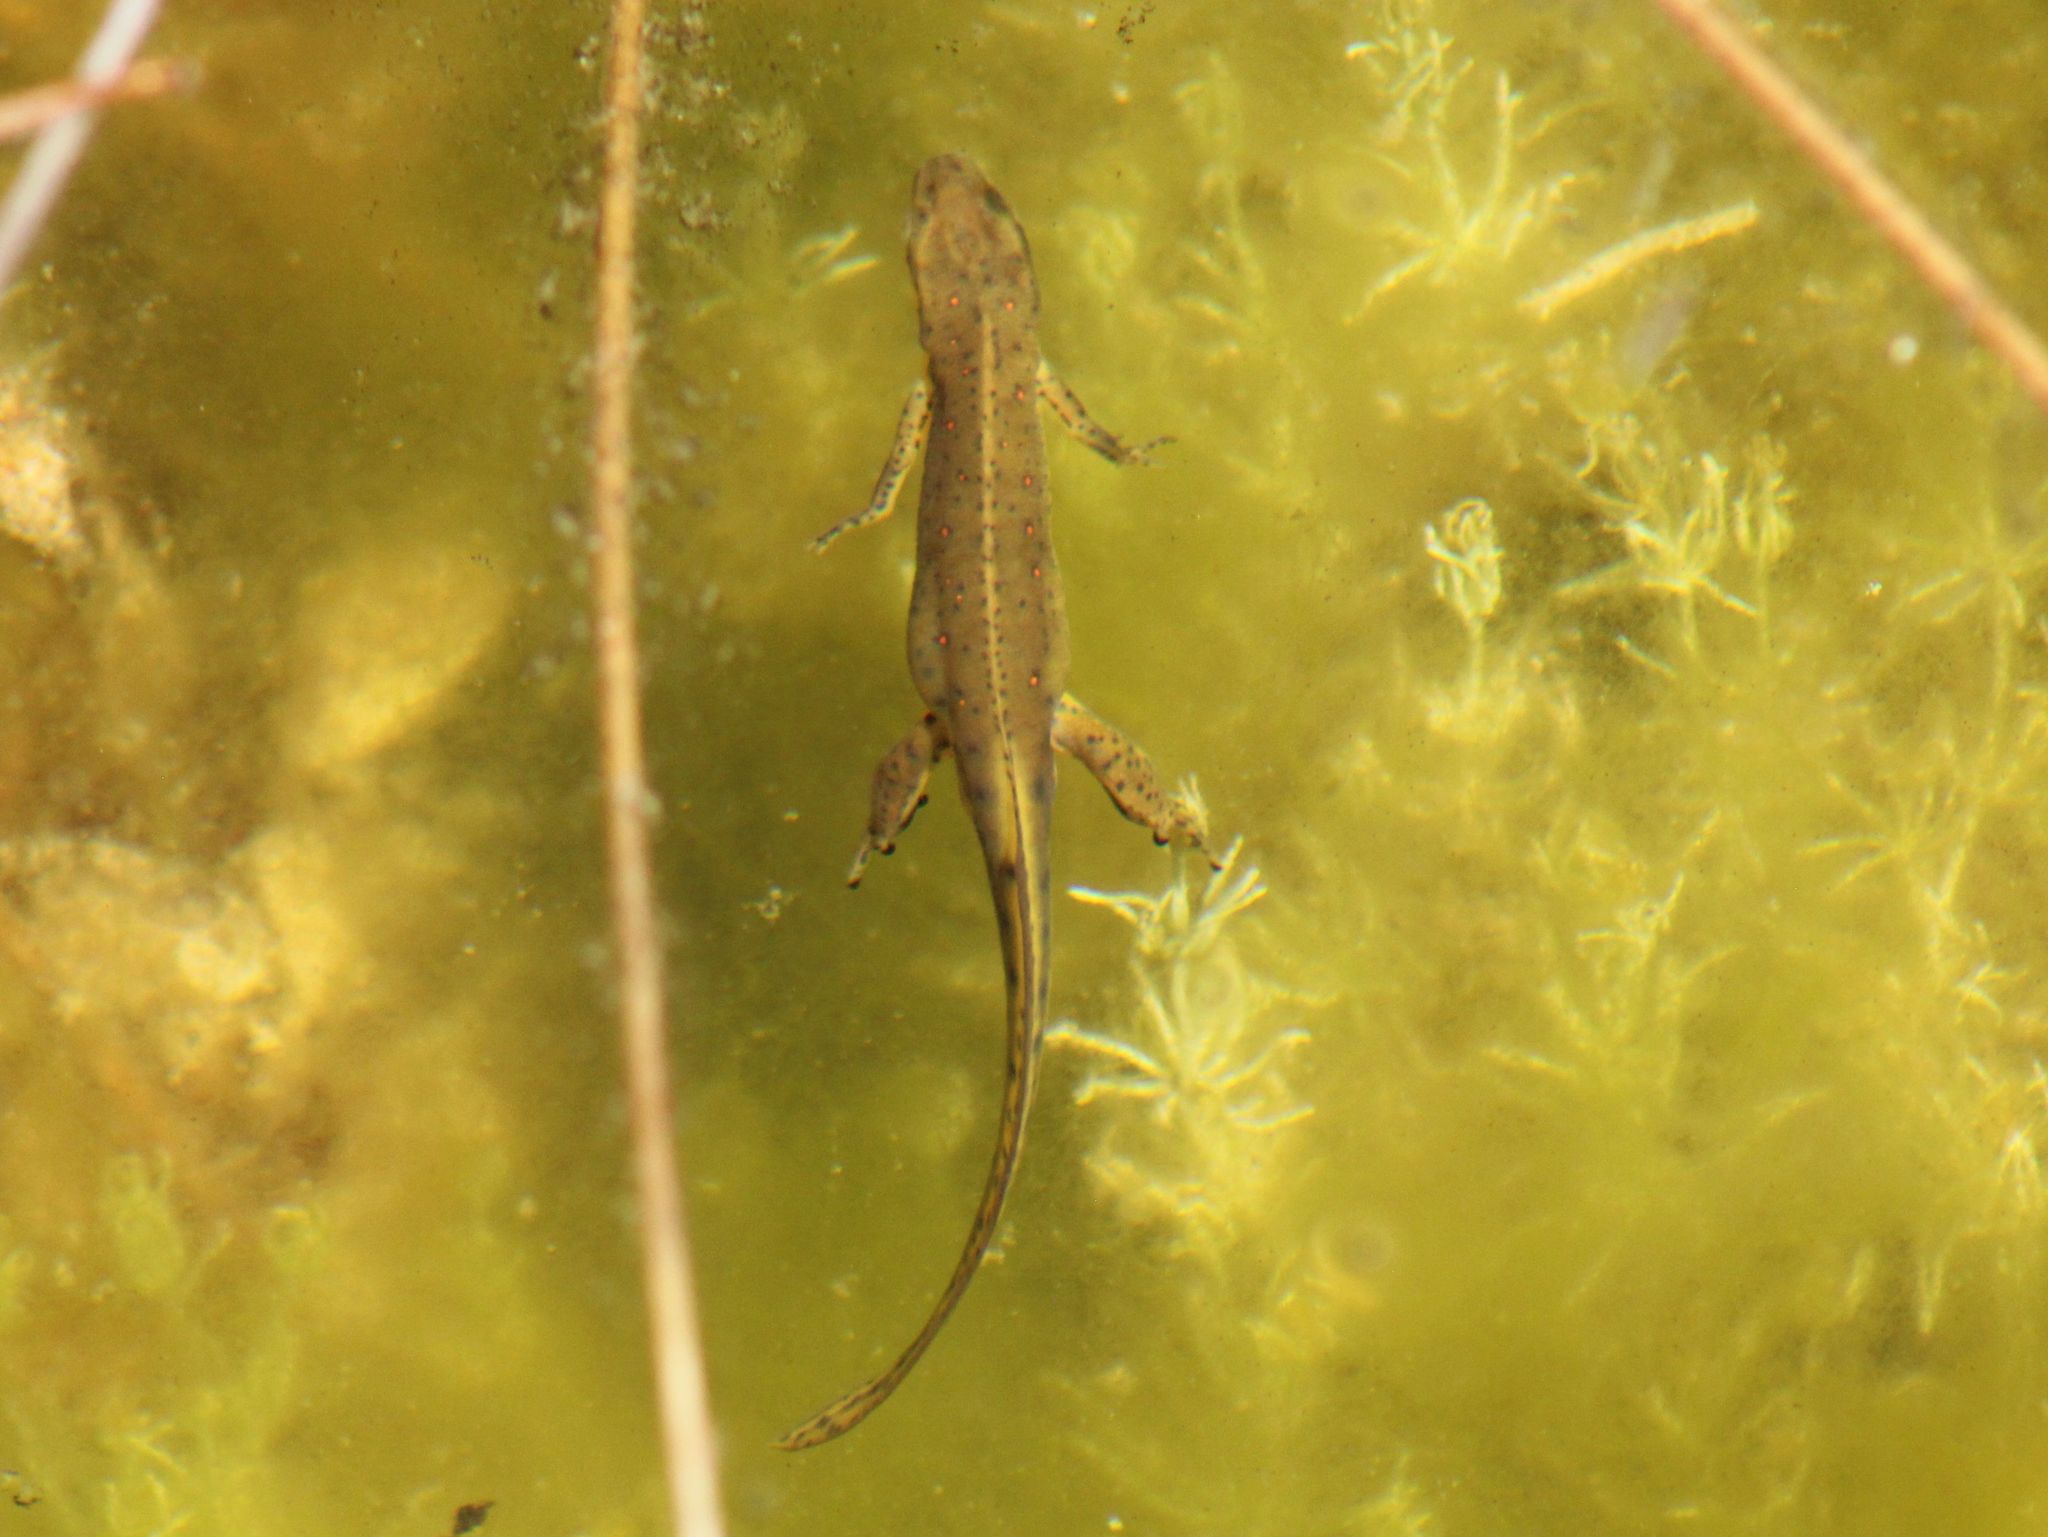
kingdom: Animalia
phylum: Chordata
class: Amphibia
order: Caudata
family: Salamandridae
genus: Notophthalmus
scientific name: Notophthalmus viridescens
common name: Eastern newt
